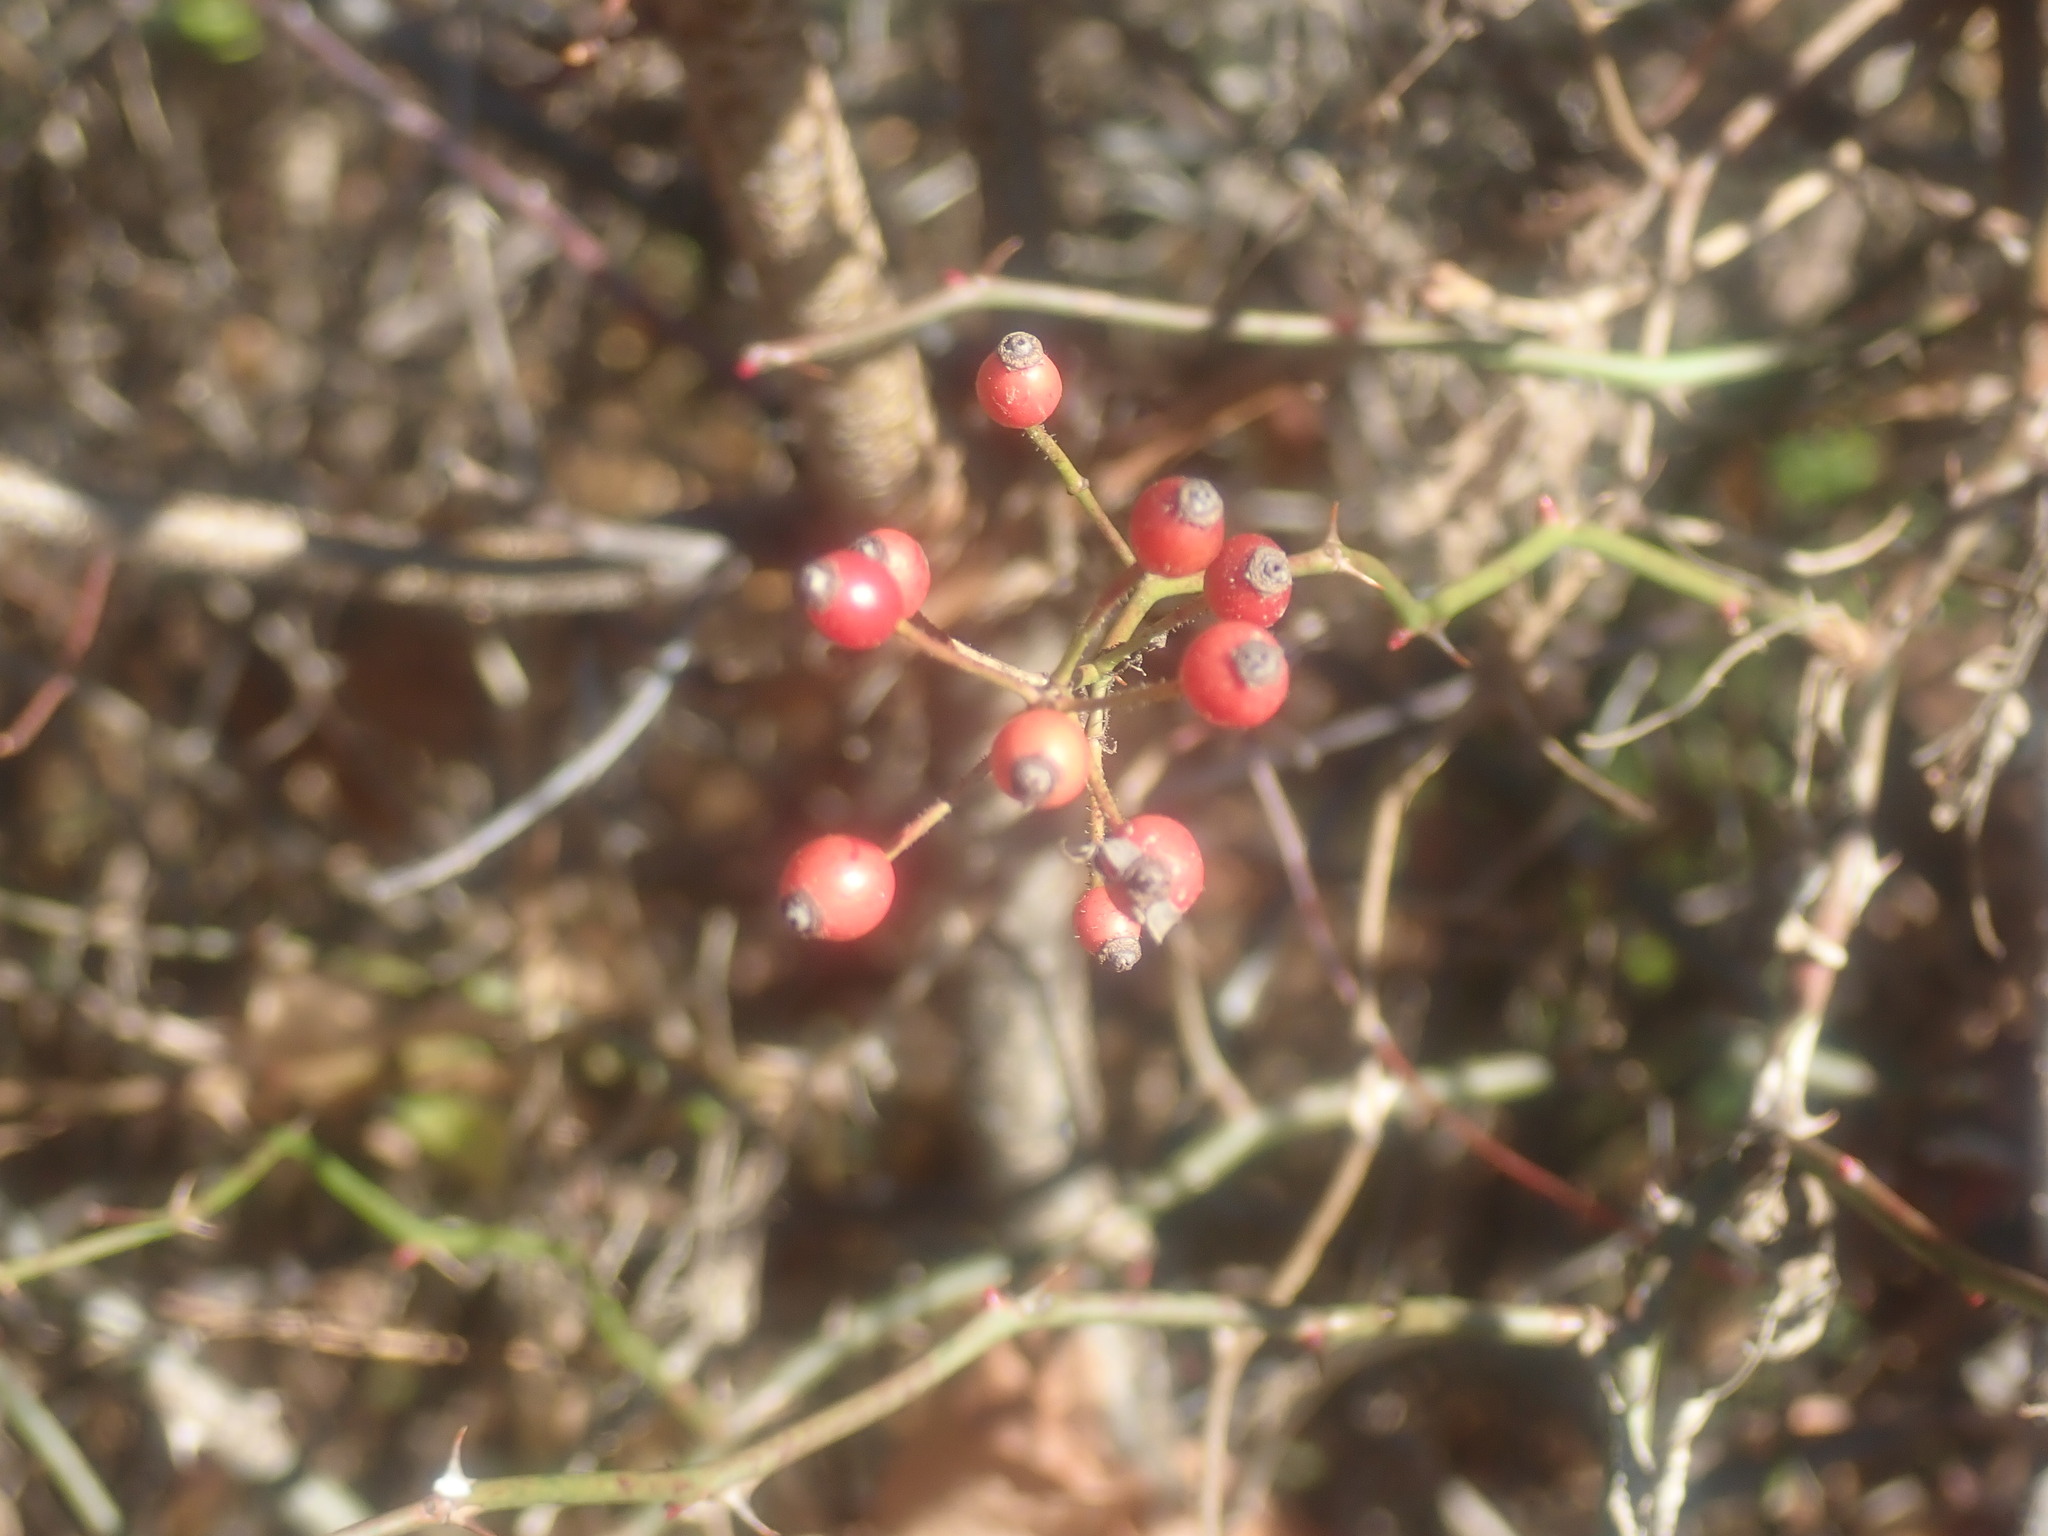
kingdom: Plantae
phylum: Tracheophyta
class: Magnoliopsida
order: Rosales
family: Rosaceae
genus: Rosa
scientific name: Rosa multiflora
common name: Multiflora rose
